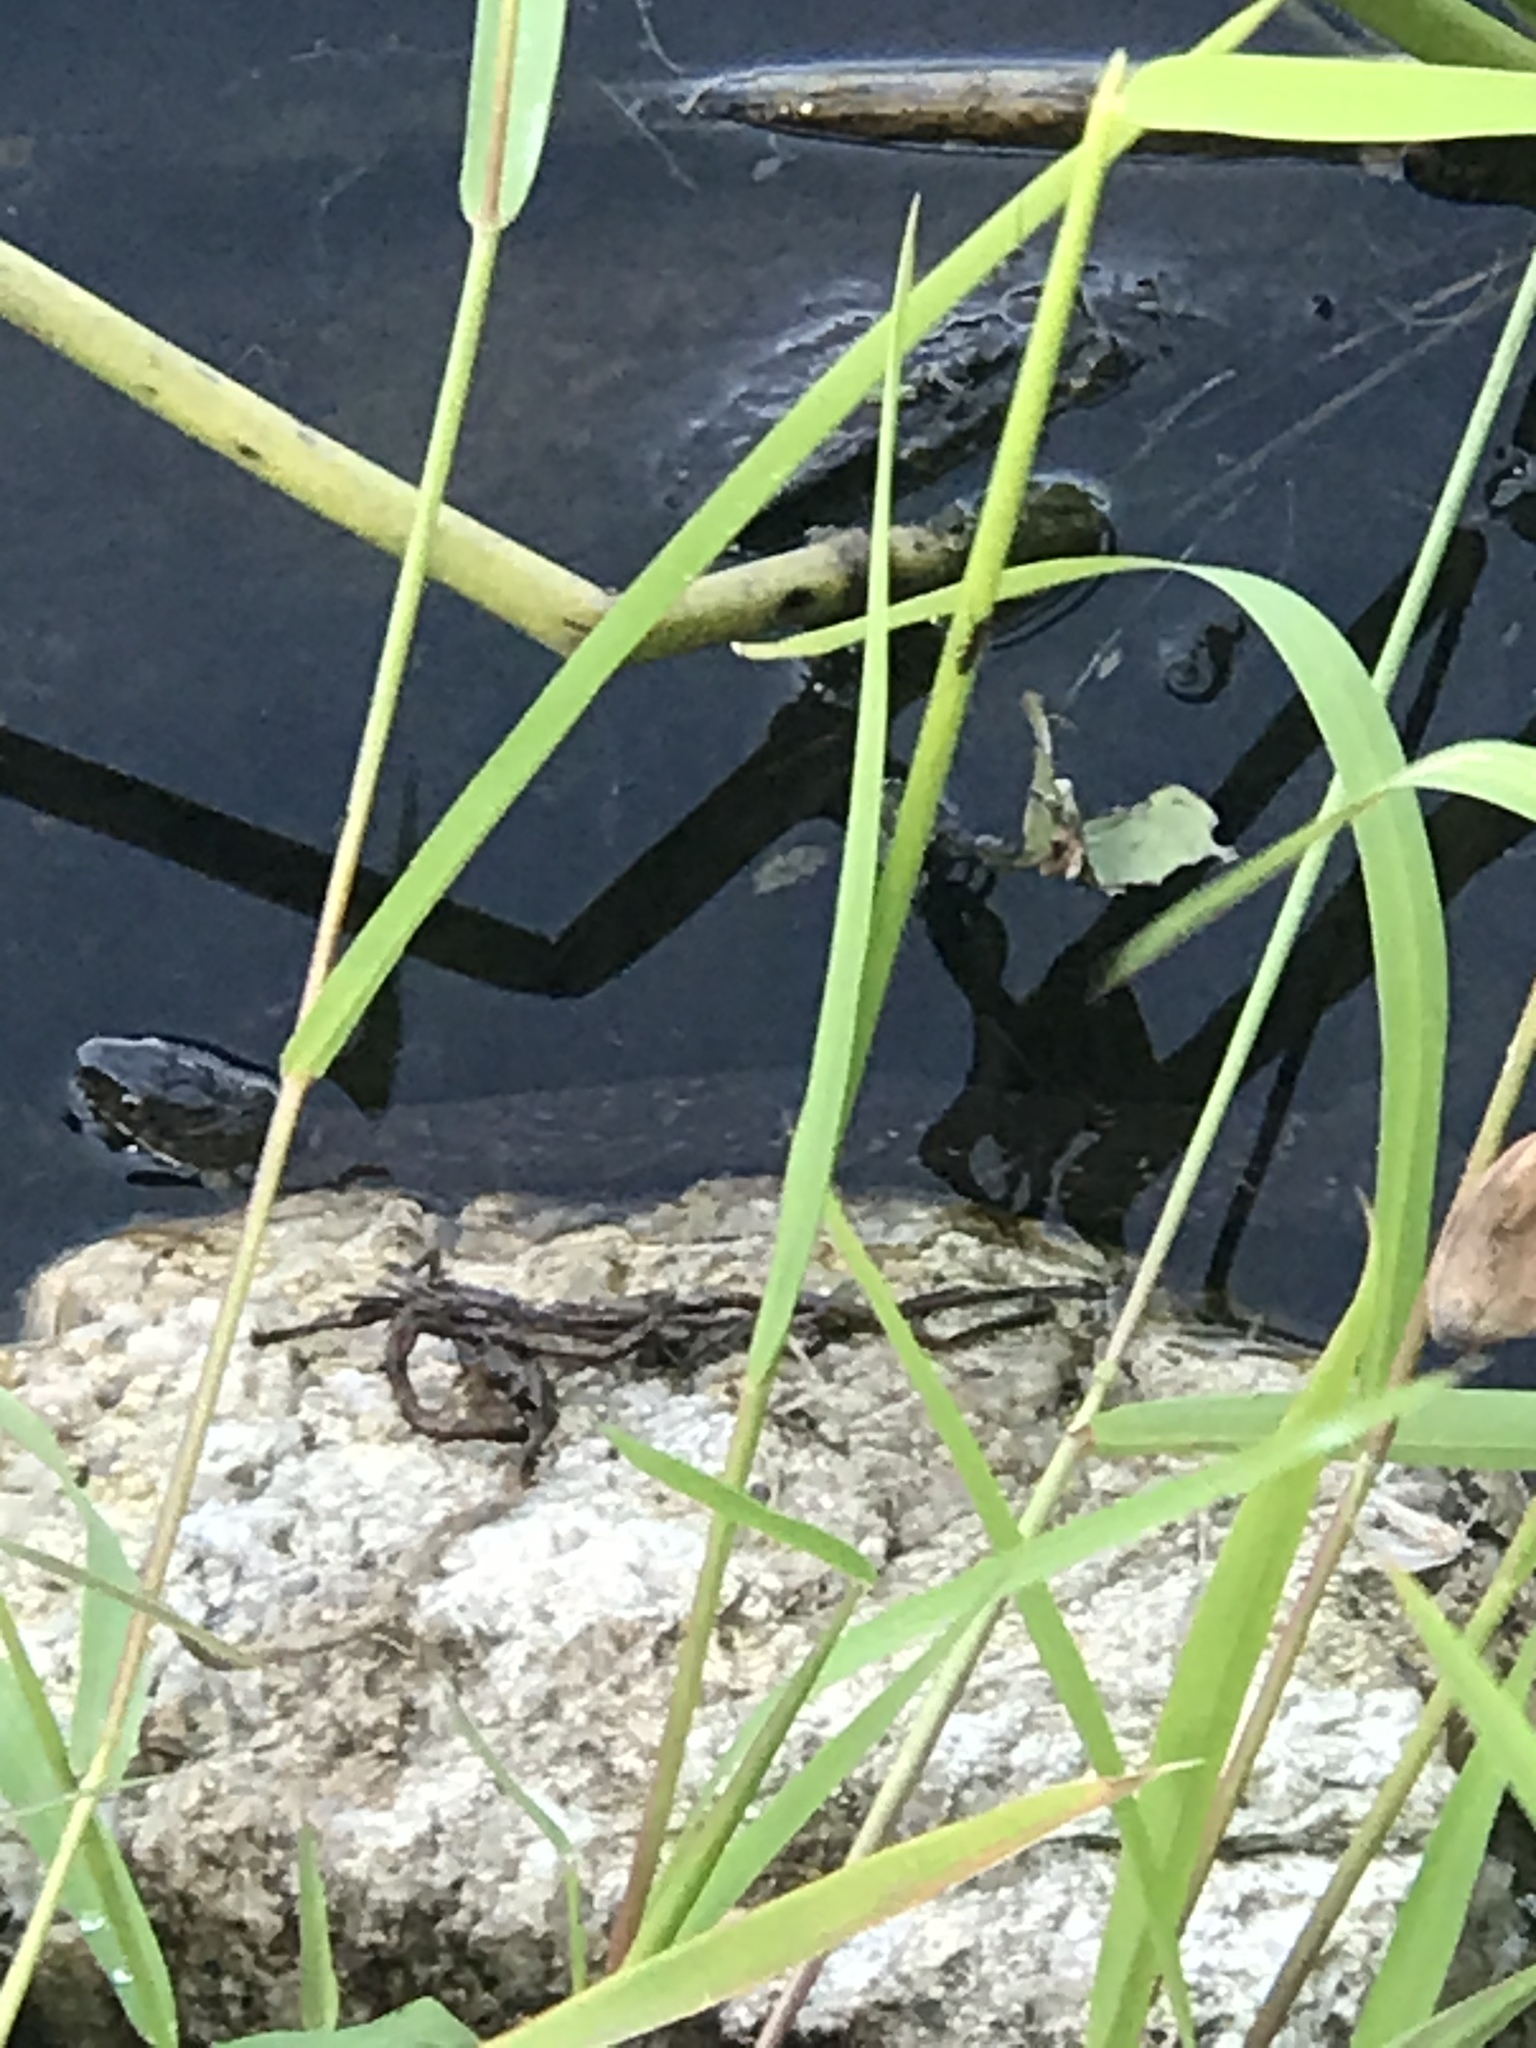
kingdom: Animalia
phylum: Chordata
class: Squamata
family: Colubridae
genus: Nerodia
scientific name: Nerodia sipedon
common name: Northern water snake
